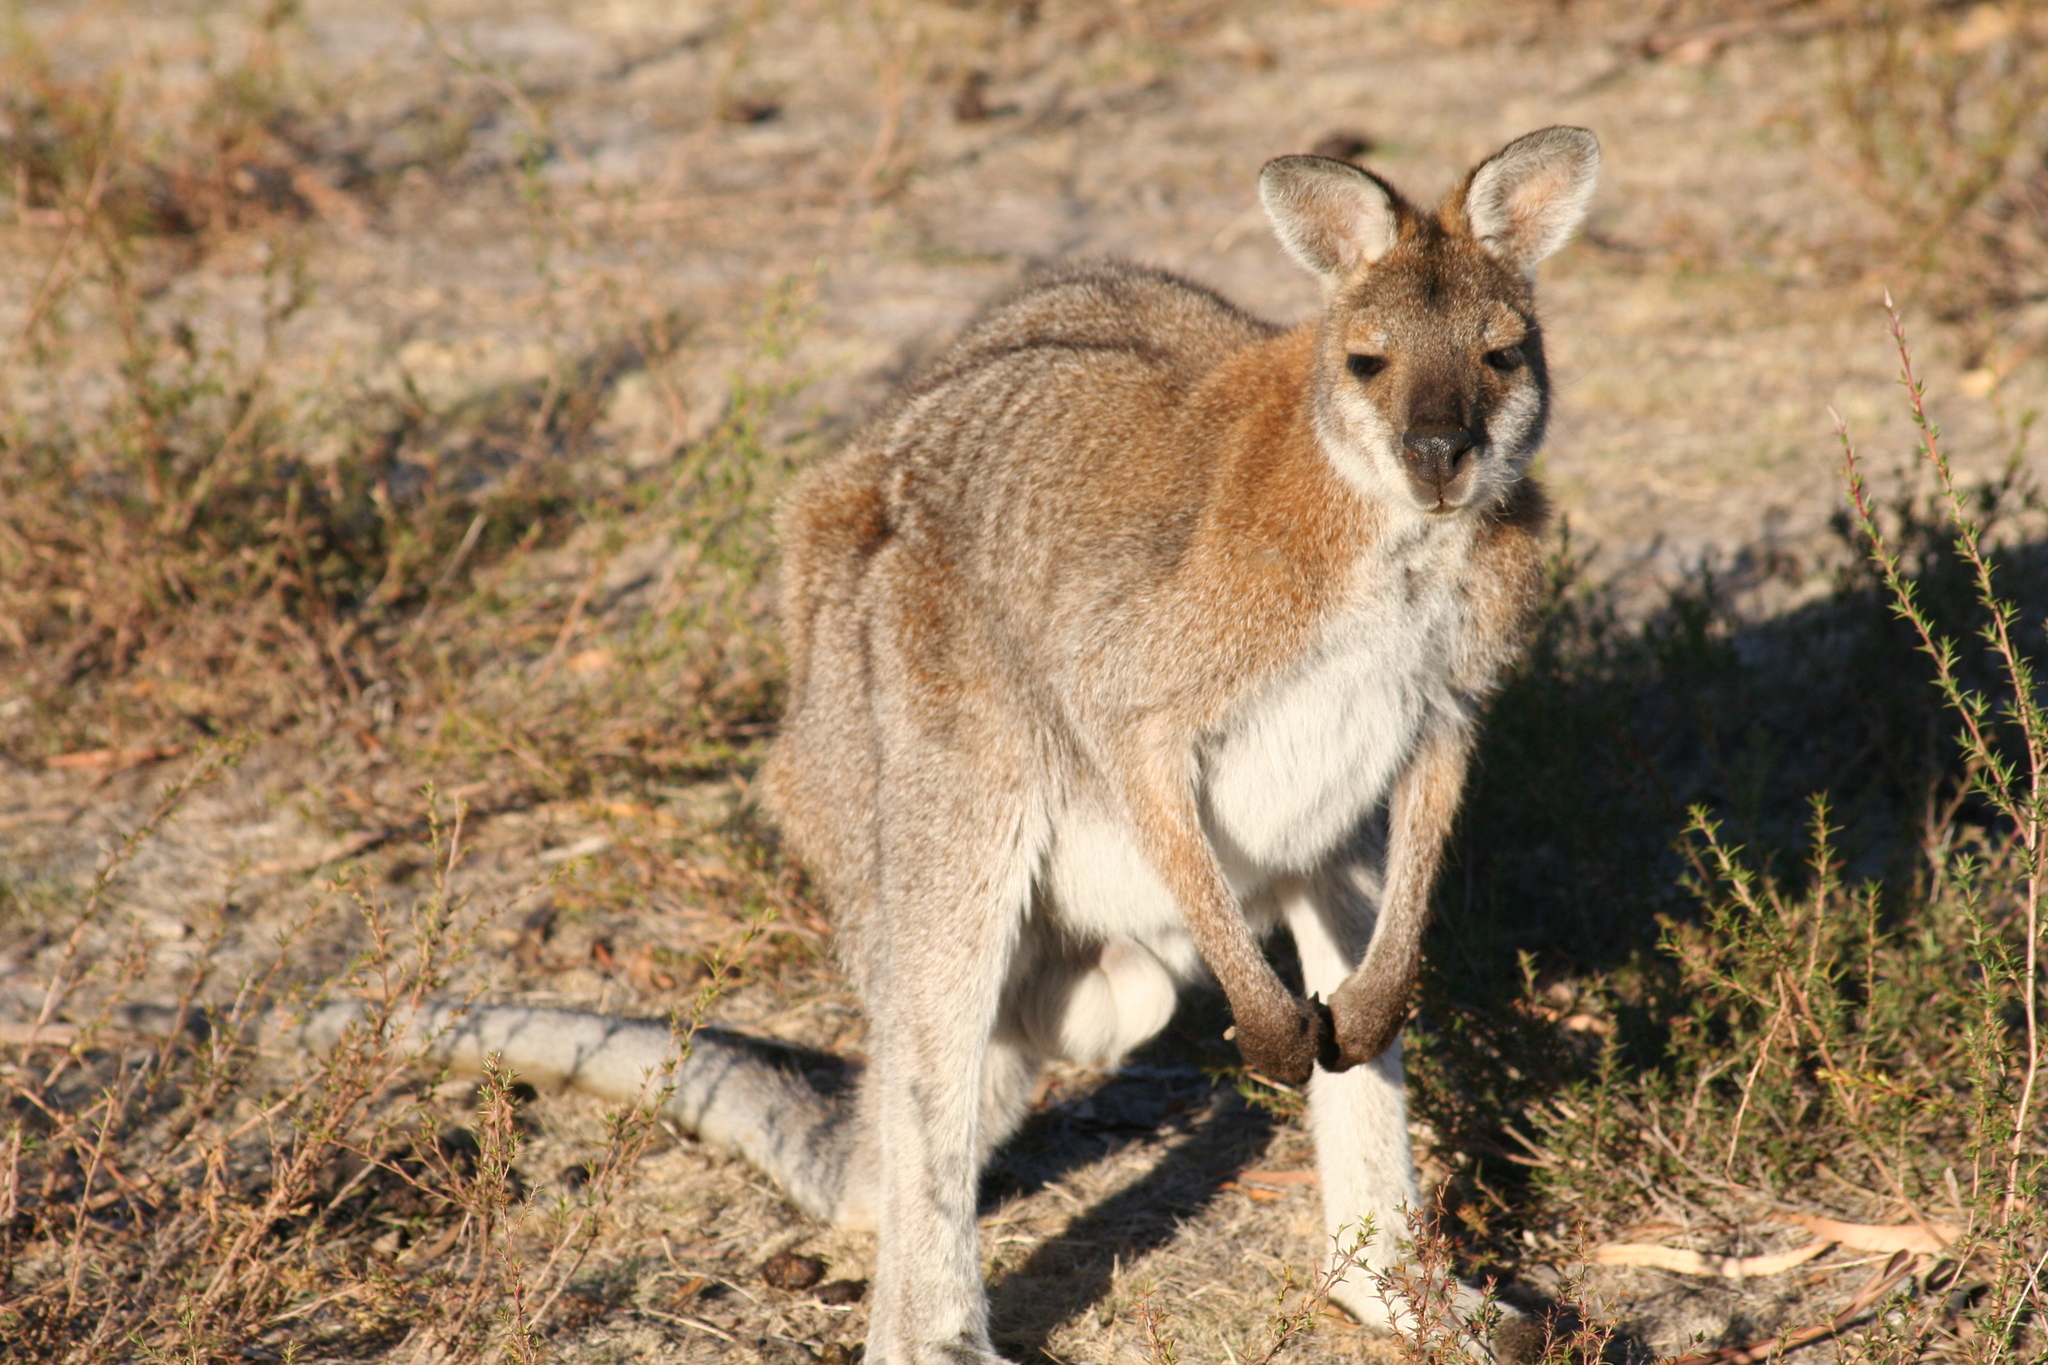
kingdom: Animalia
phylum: Chordata
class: Mammalia
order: Diprotodontia
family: Macropodidae
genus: Notamacropus
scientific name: Notamacropus rufogriseus
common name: Red-necked wallaby
